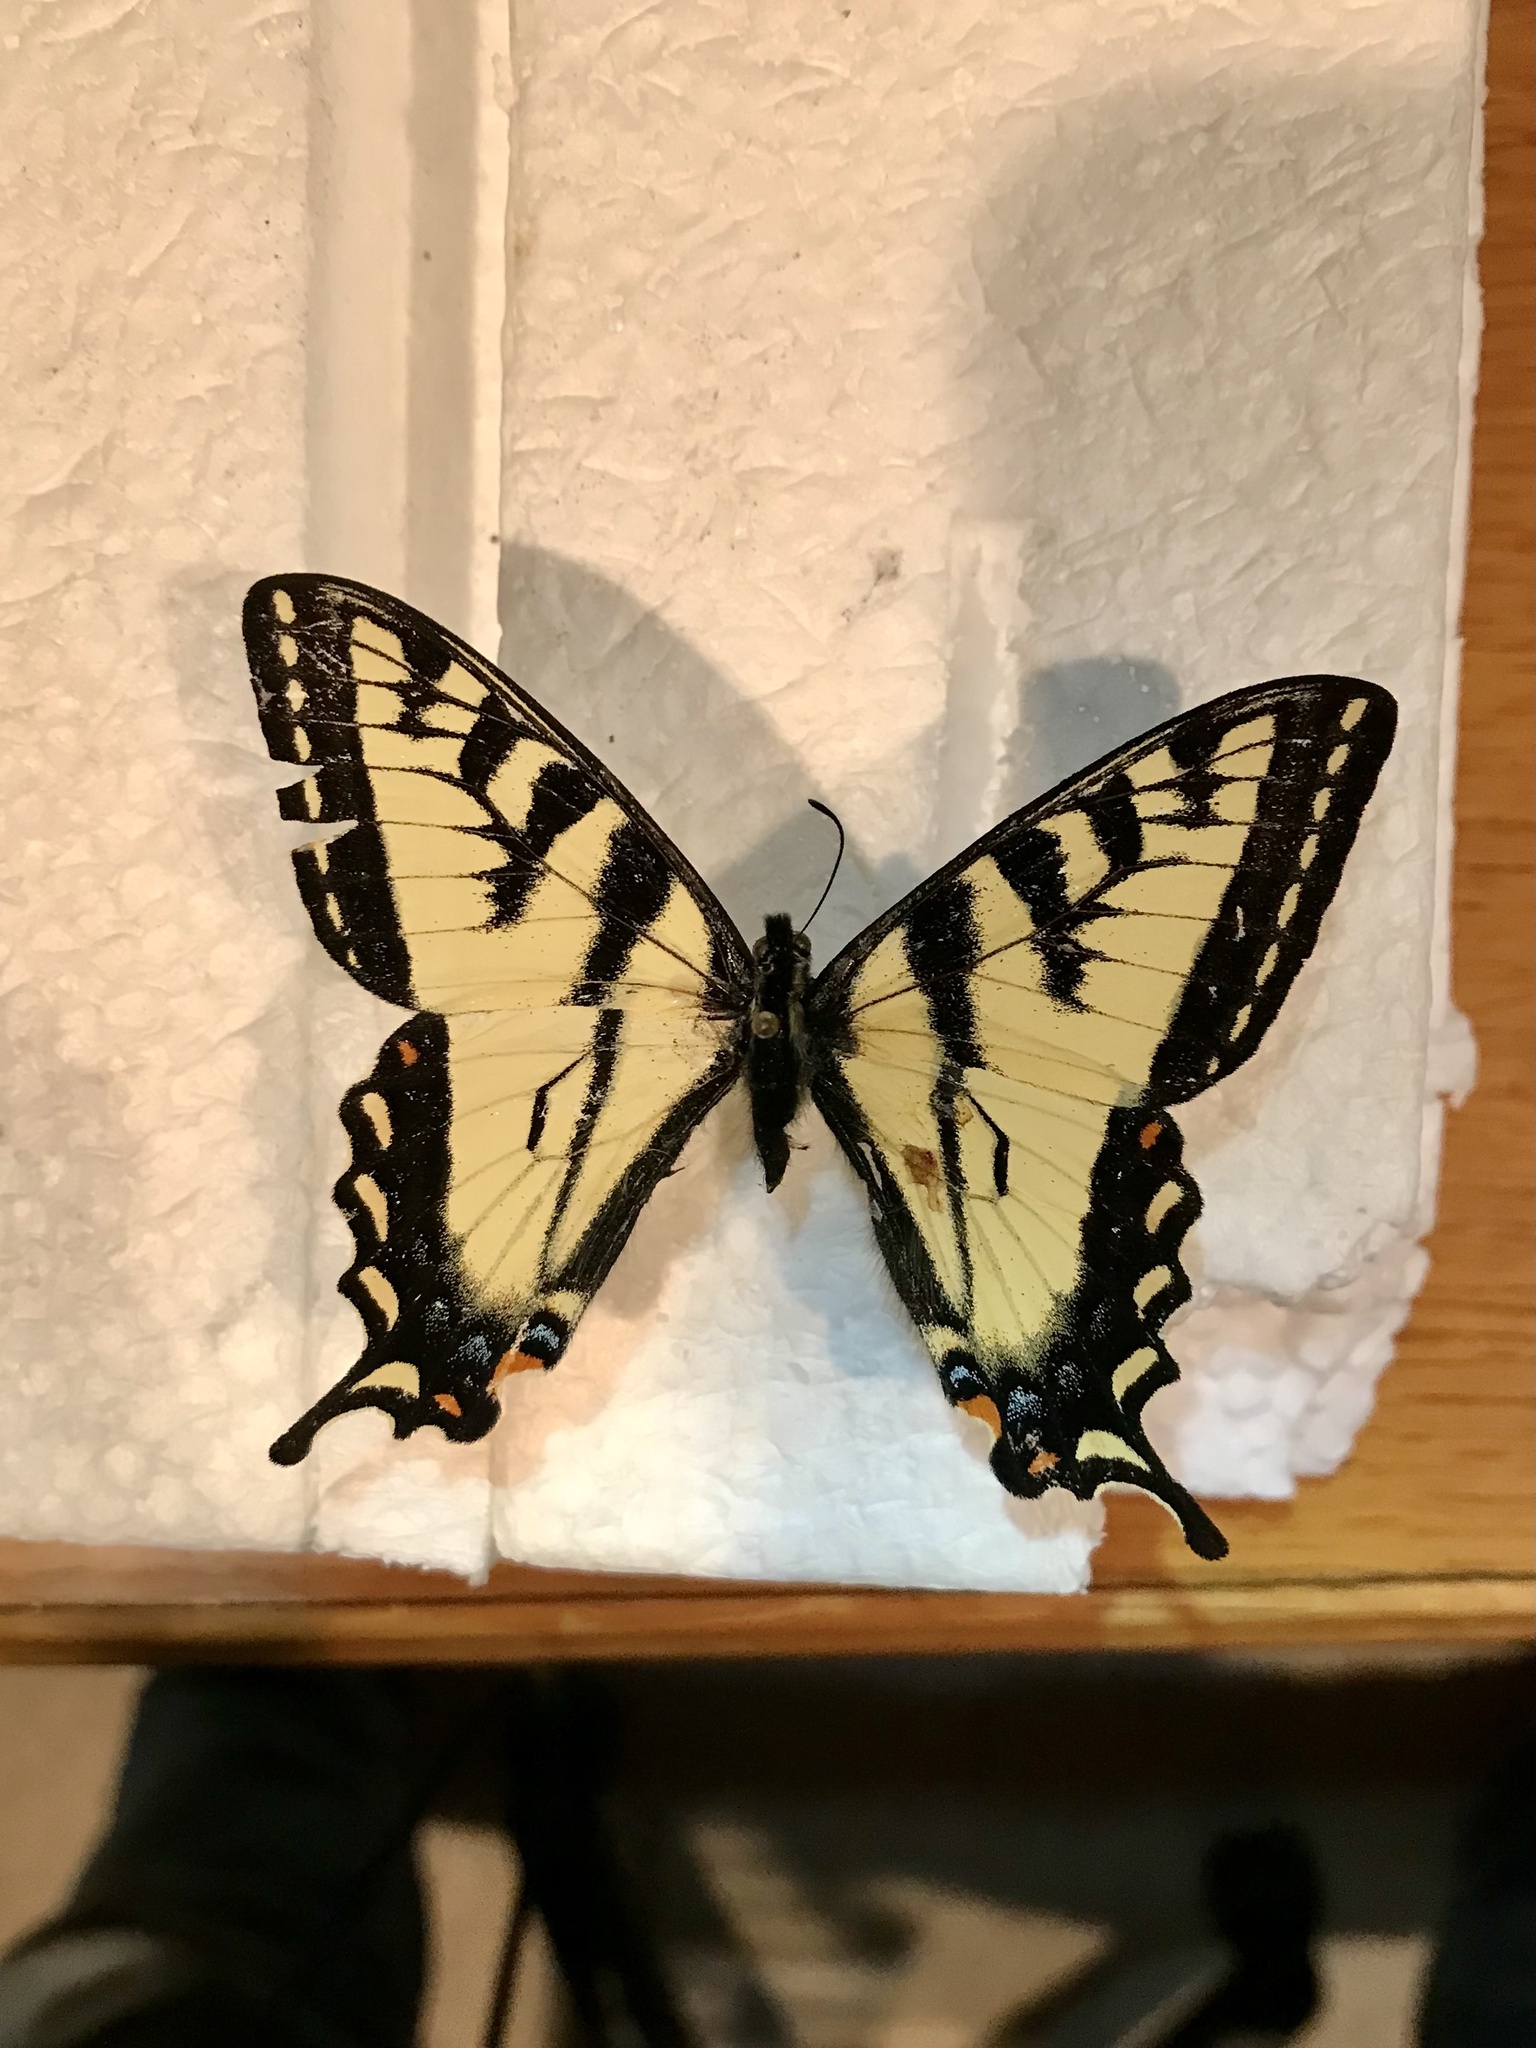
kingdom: Animalia
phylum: Arthropoda
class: Insecta
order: Lepidoptera
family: Papilionidae
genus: Papilio
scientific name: Papilio canadensis
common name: Canadian tiger swallowtail
